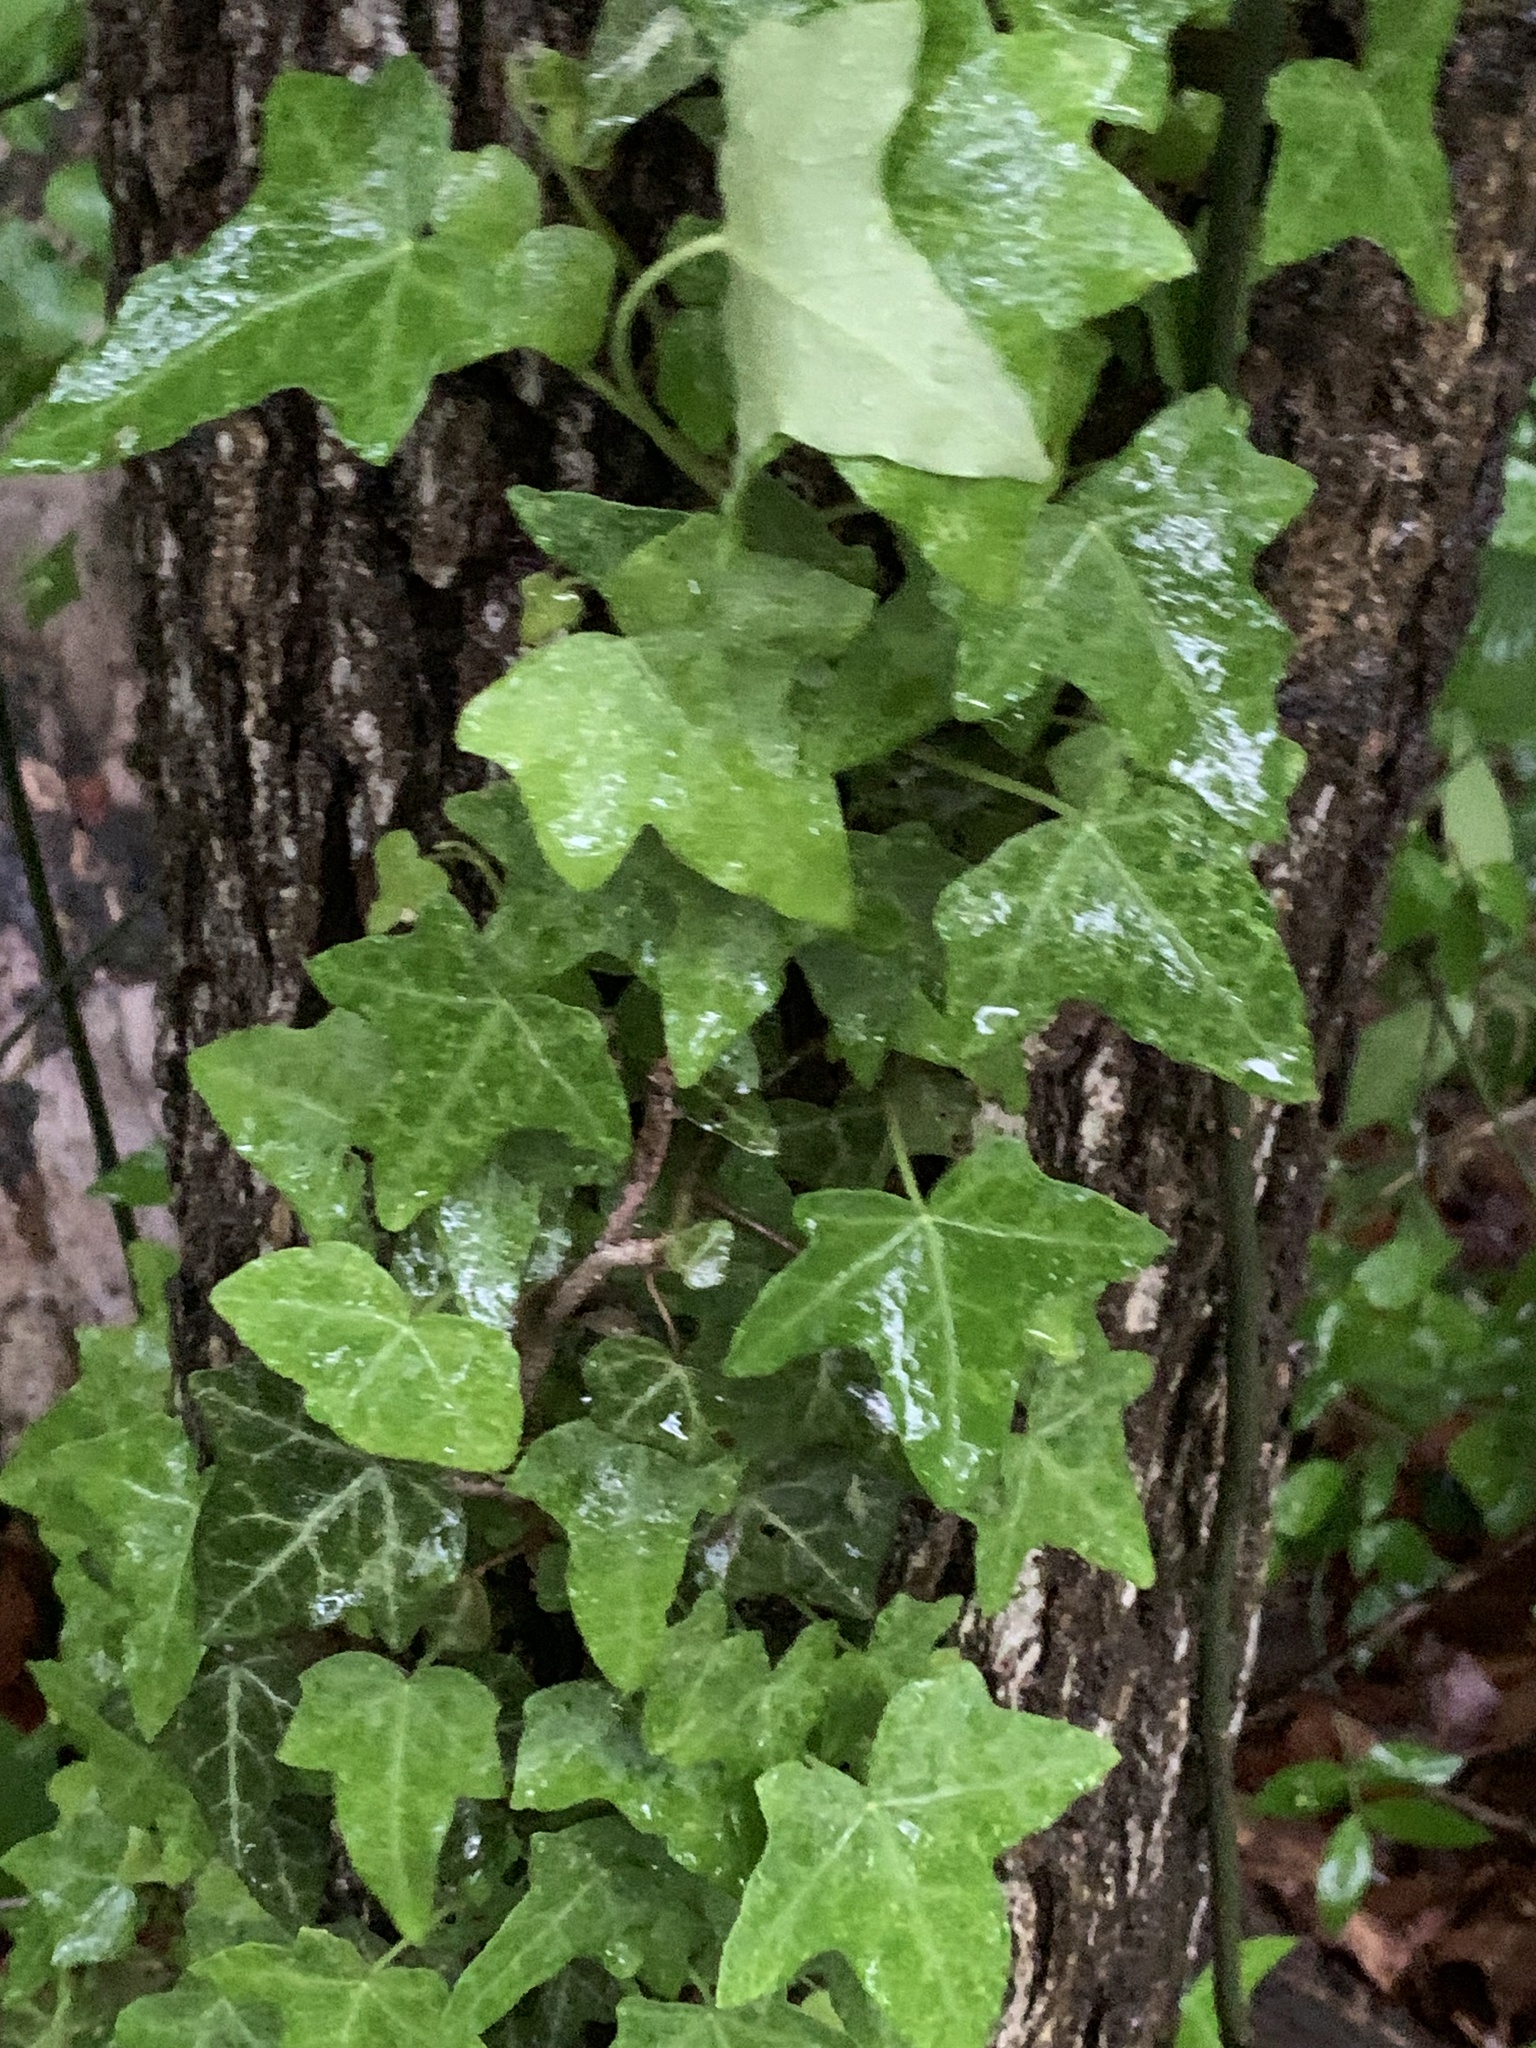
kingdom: Plantae
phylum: Tracheophyta
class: Magnoliopsida
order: Apiales
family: Araliaceae
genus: Hedera
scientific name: Hedera helix
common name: Ivy
